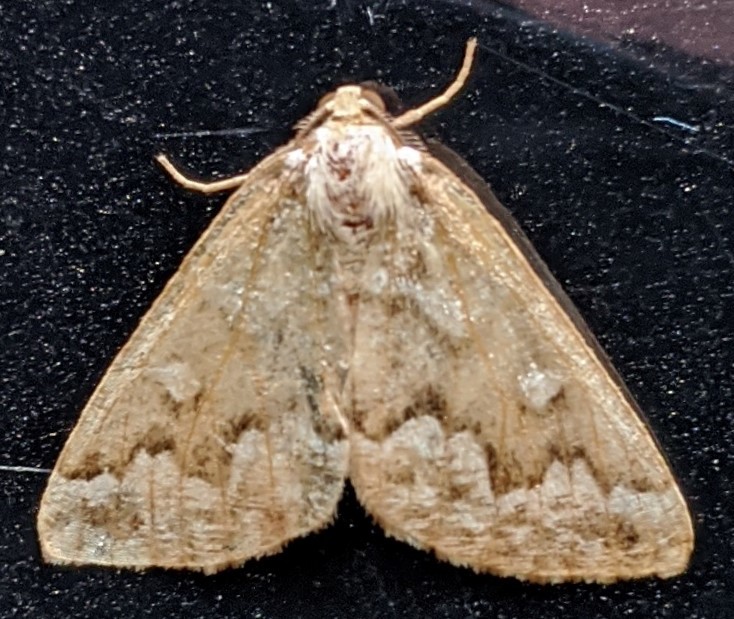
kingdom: Animalia
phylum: Arthropoda
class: Insecta
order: Lepidoptera
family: Geometridae
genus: Caripeta
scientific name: Caripeta divisata
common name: Gray spruce looper
